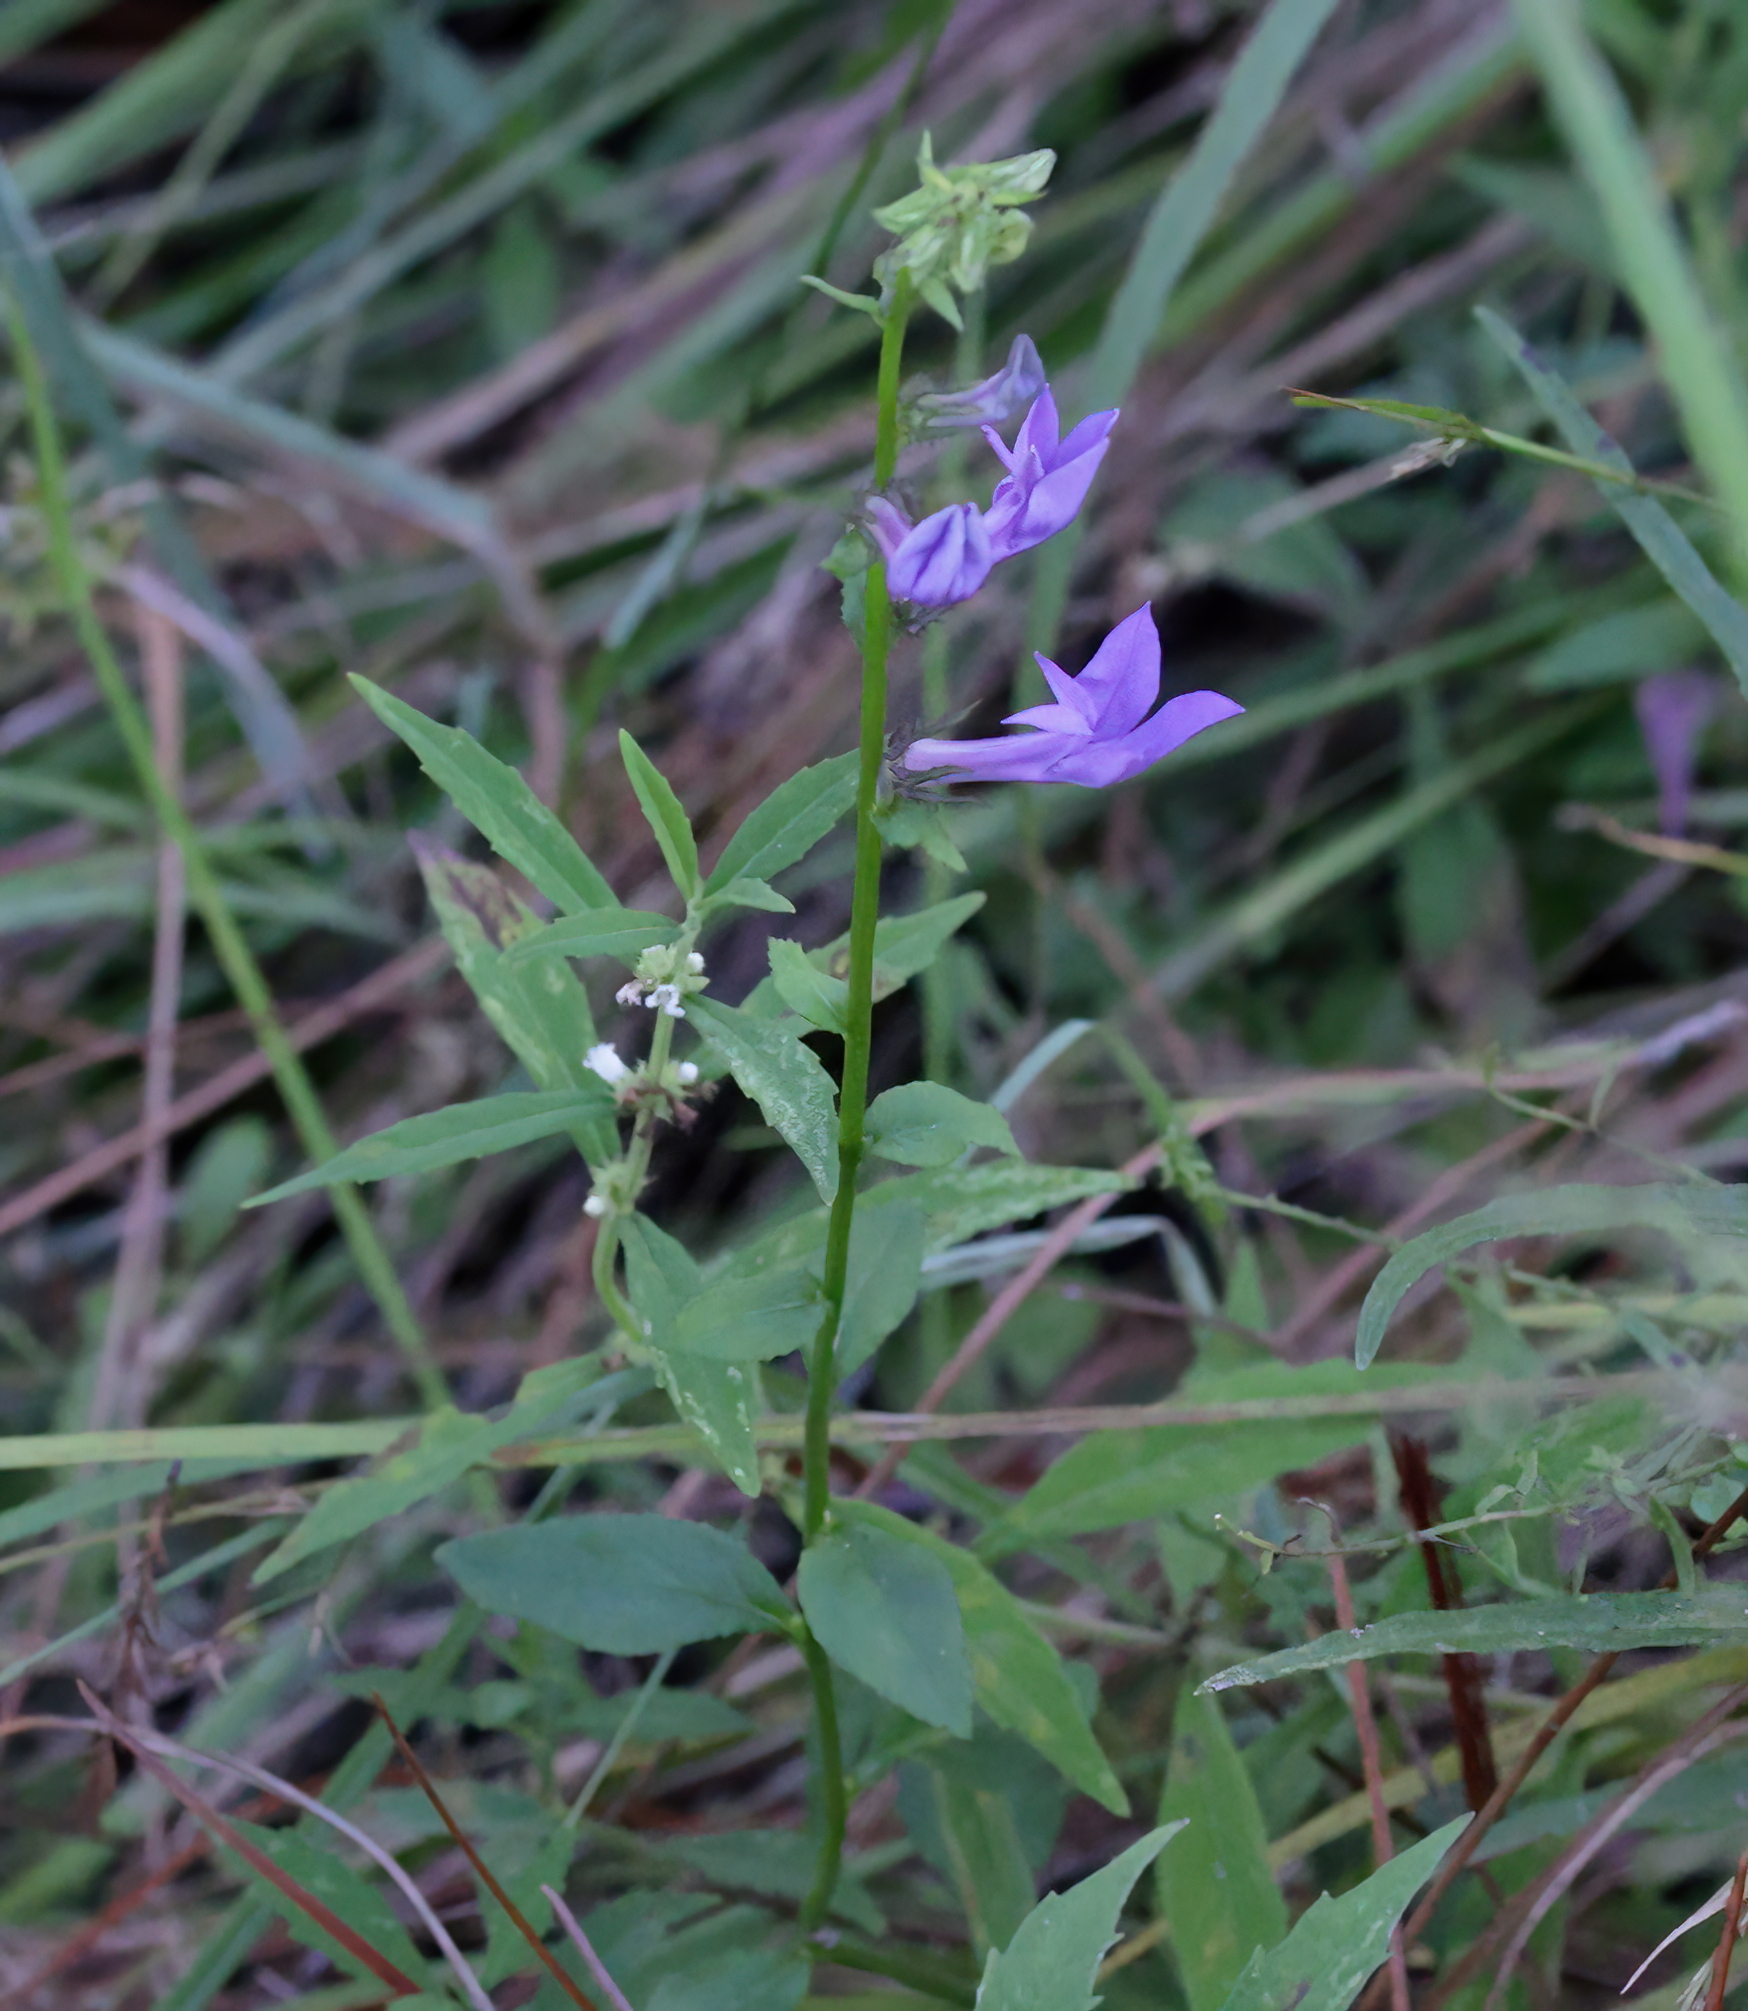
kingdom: Plantae
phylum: Tracheophyta
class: Magnoliopsida
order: Asterales
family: Campanulaceae
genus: Lobelia
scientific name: Lobelia rogersii
